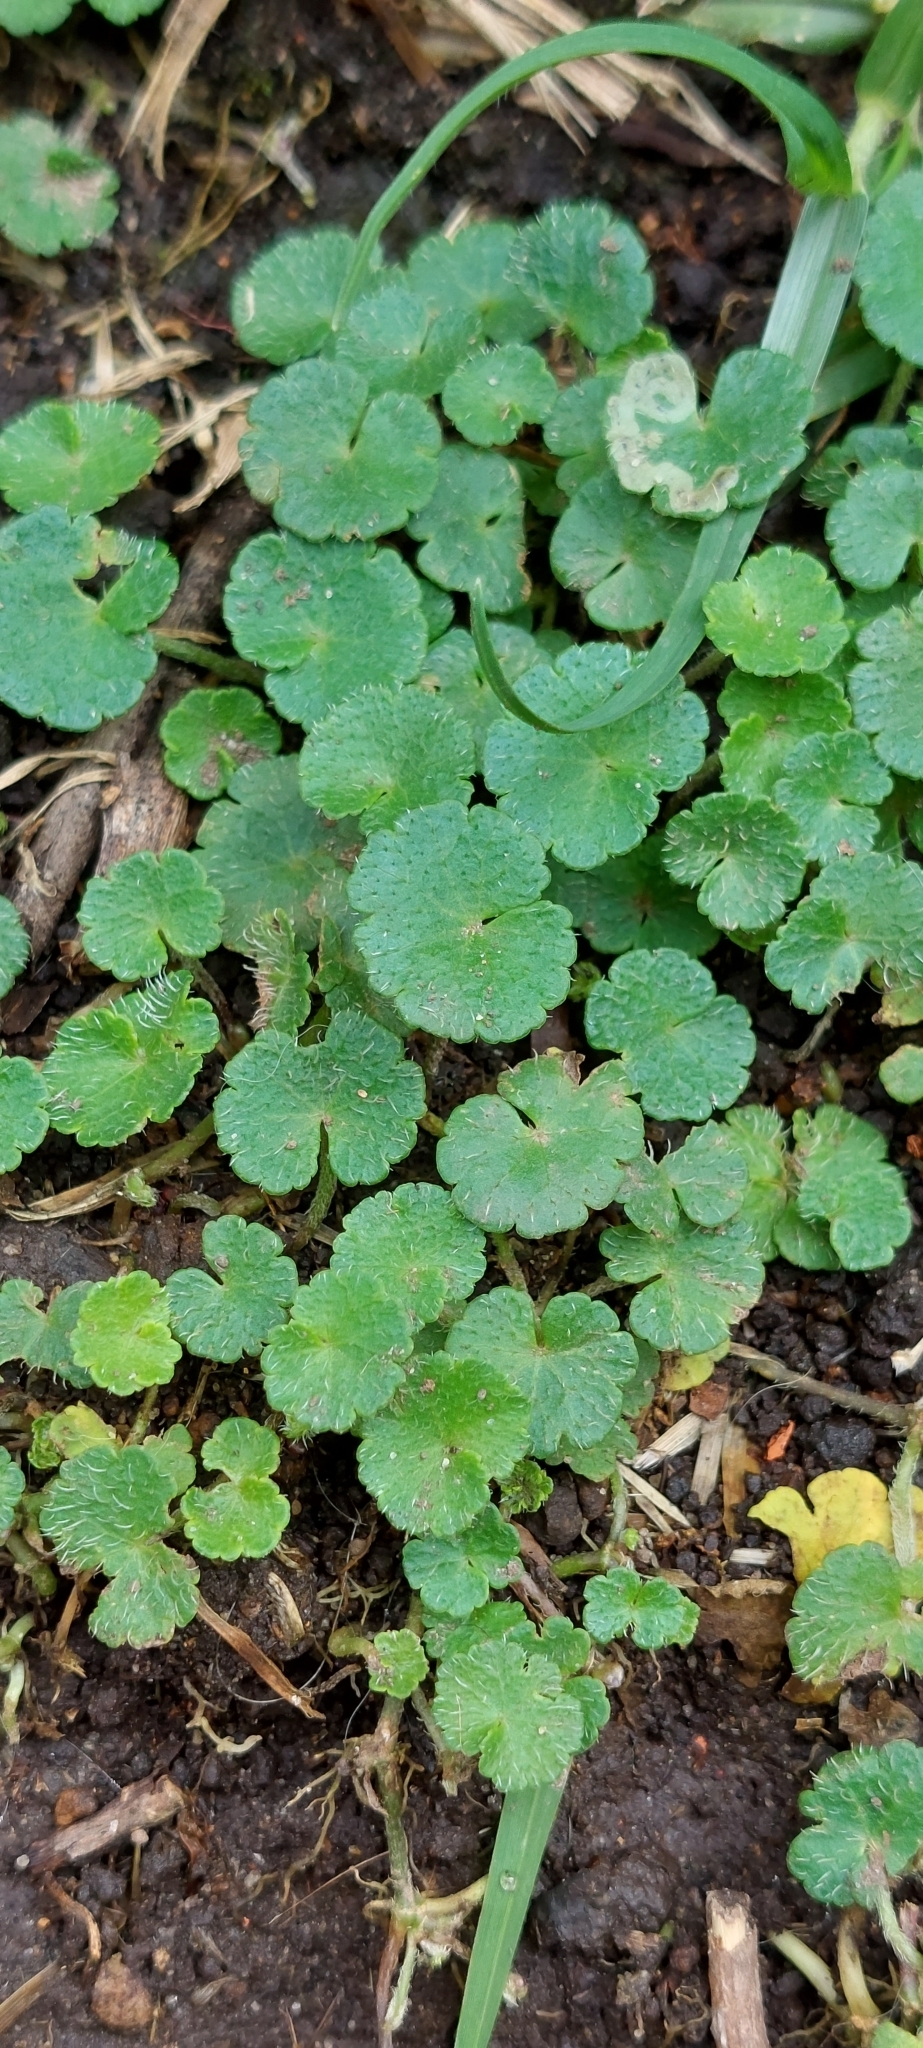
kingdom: Plantae
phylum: Tracheophyta
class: Magnoliopsida
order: Apiales
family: Araliaceae
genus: Hydrocotyle
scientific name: Hydrocotyle bonplandii
